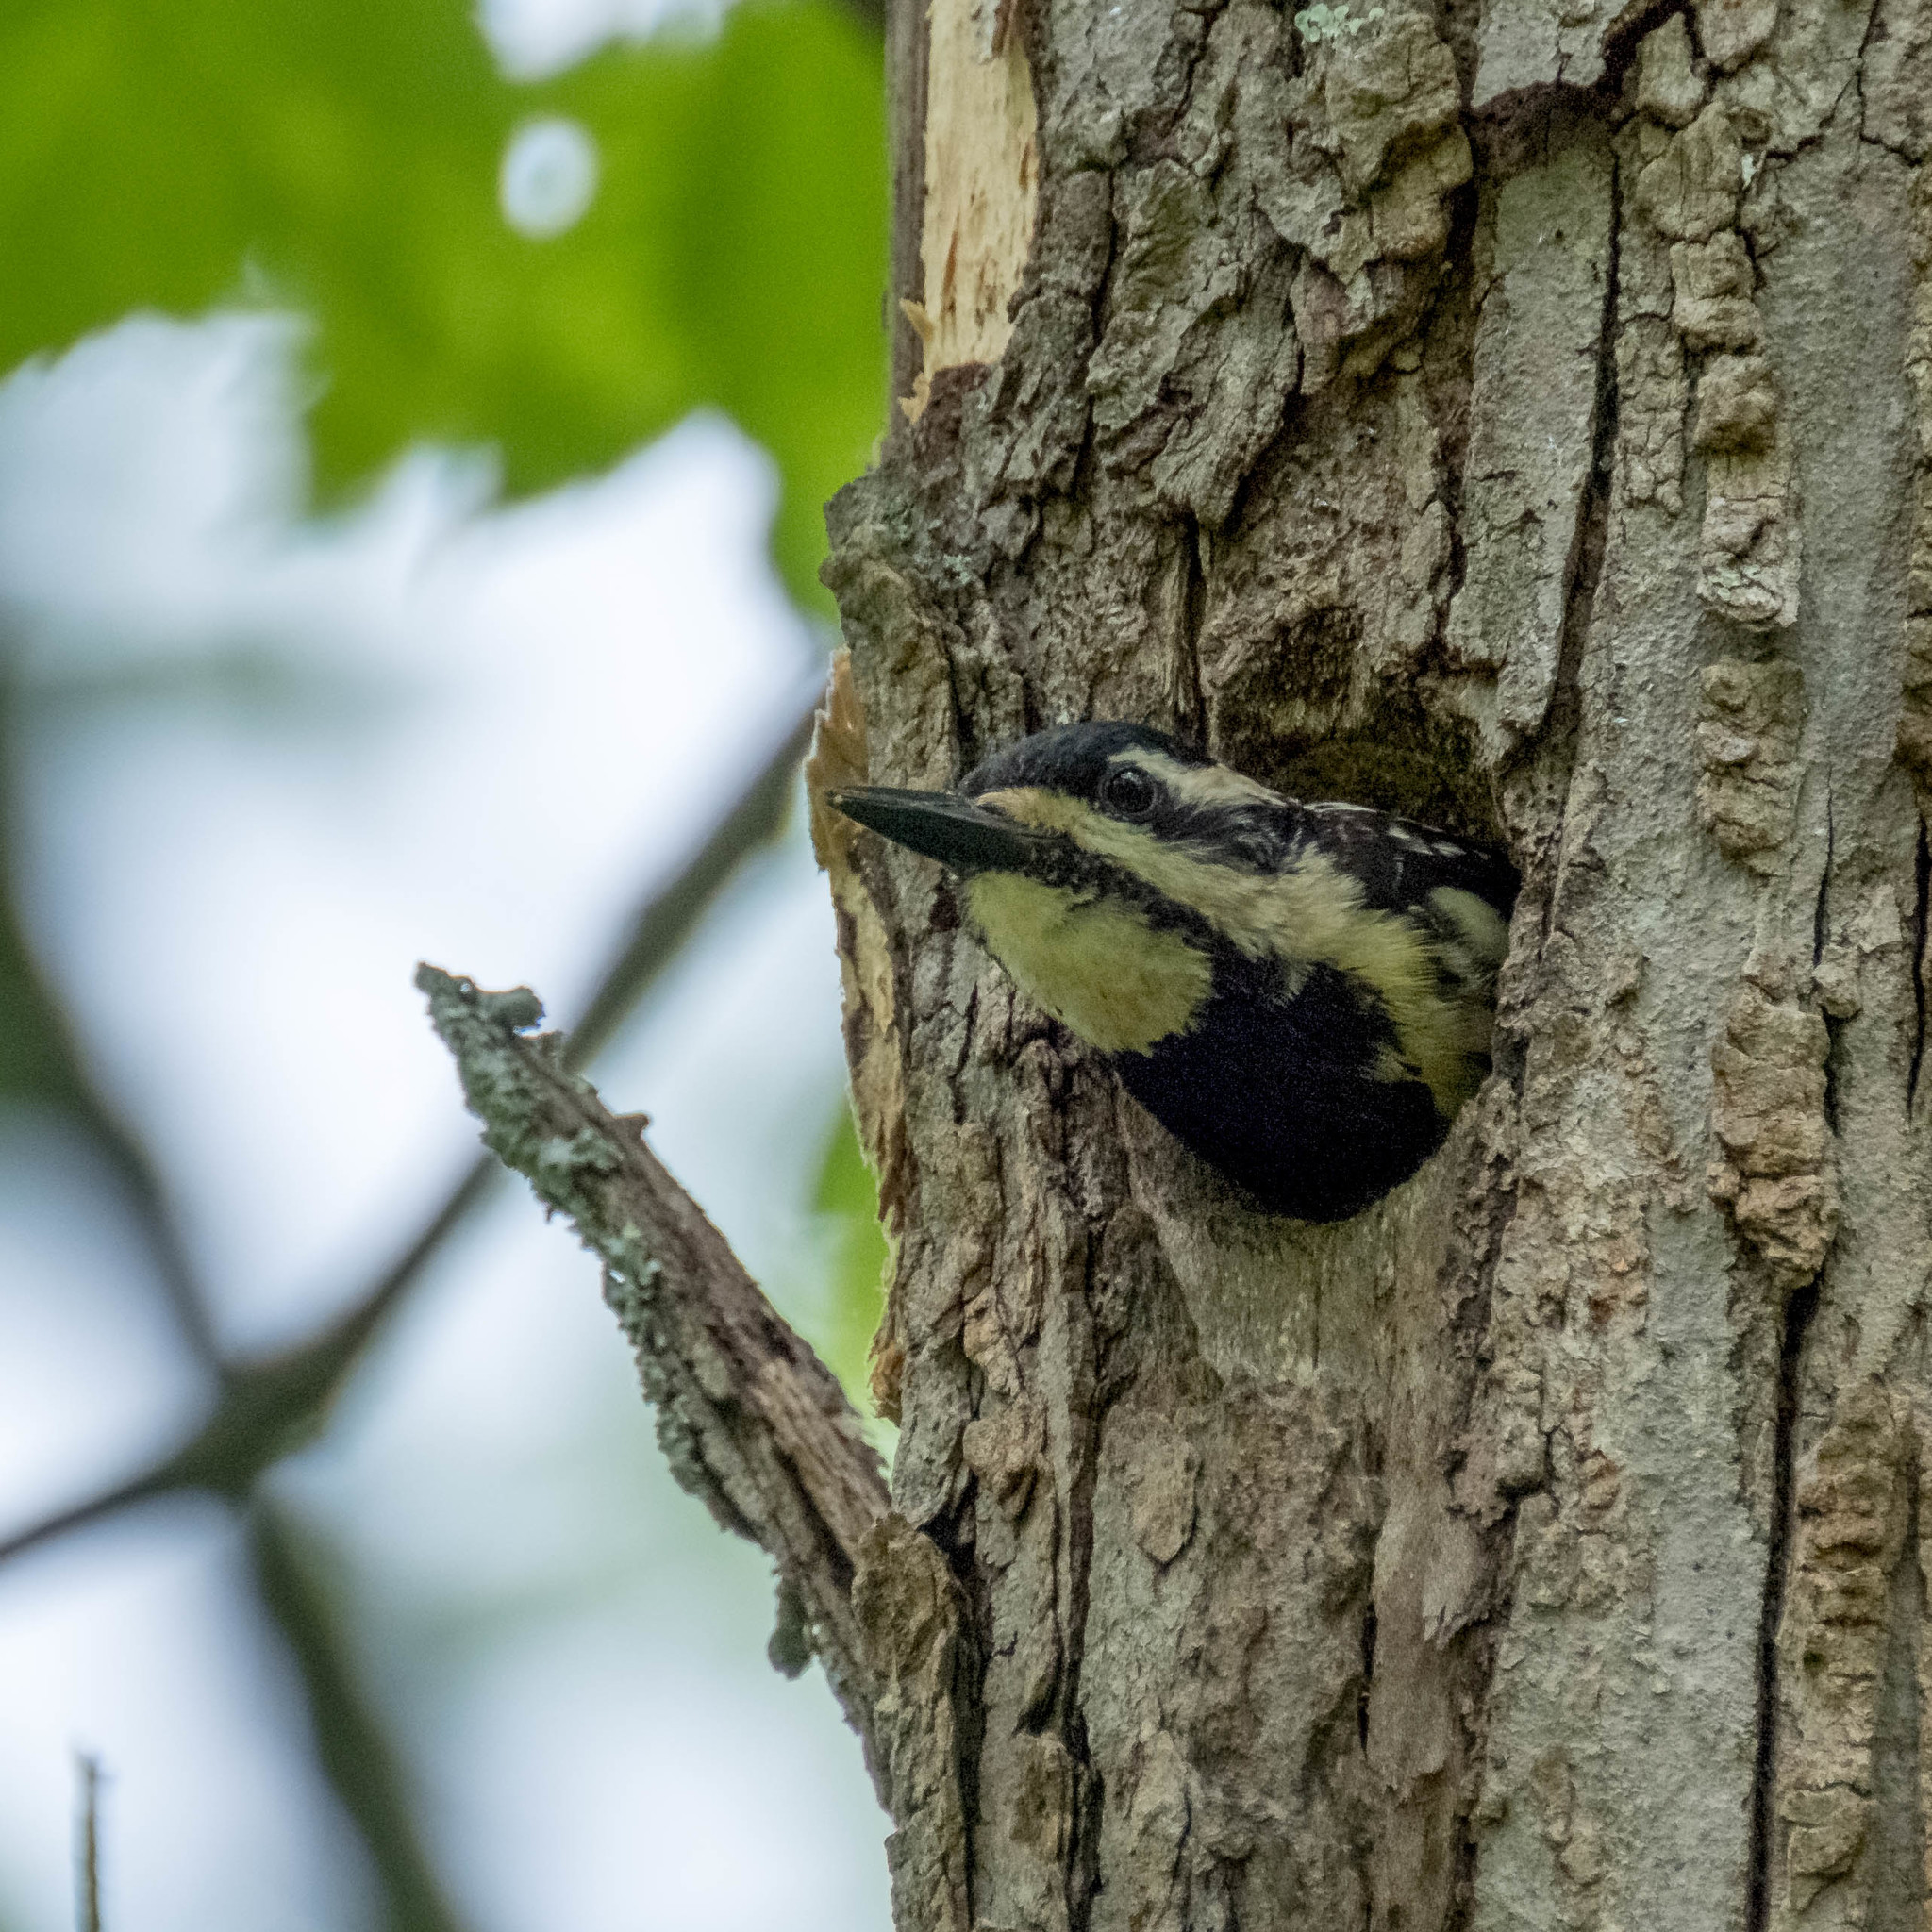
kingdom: Animalia
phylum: Chordata
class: Aves
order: Piciformes
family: Picidae
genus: Sphyrapicus
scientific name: Sphyrapicus varius
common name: Yellow-bellied sapsucker
